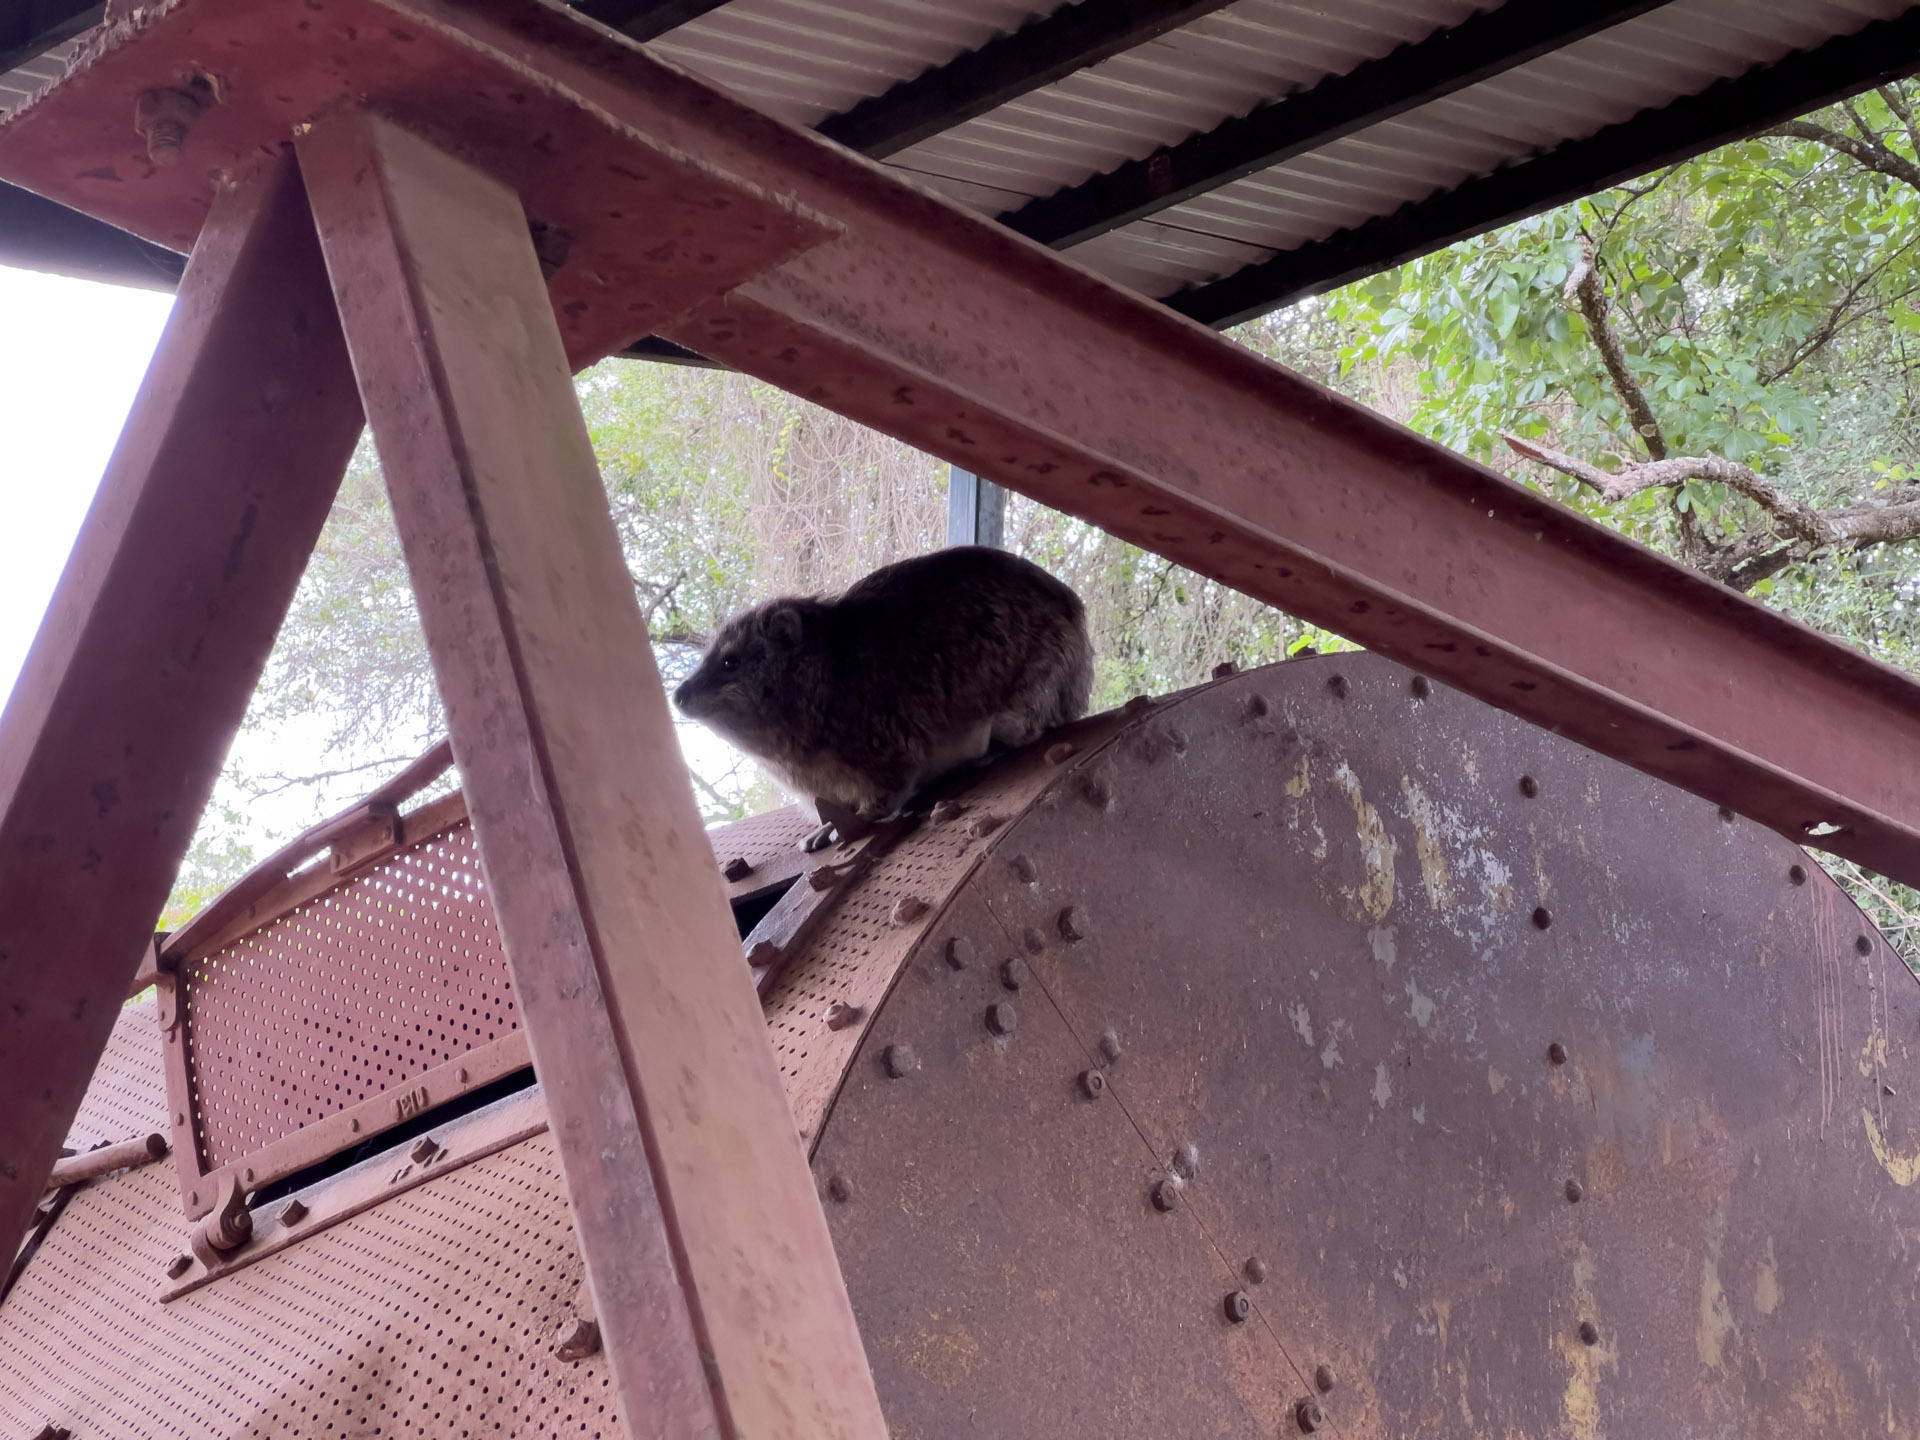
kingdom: Animalia
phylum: Chordata
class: Mammalia
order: Hyracoidea
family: Procaviidae
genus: Dendrohyrax
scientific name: Dendrohyrax arboreus
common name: Southern tree hyrax
